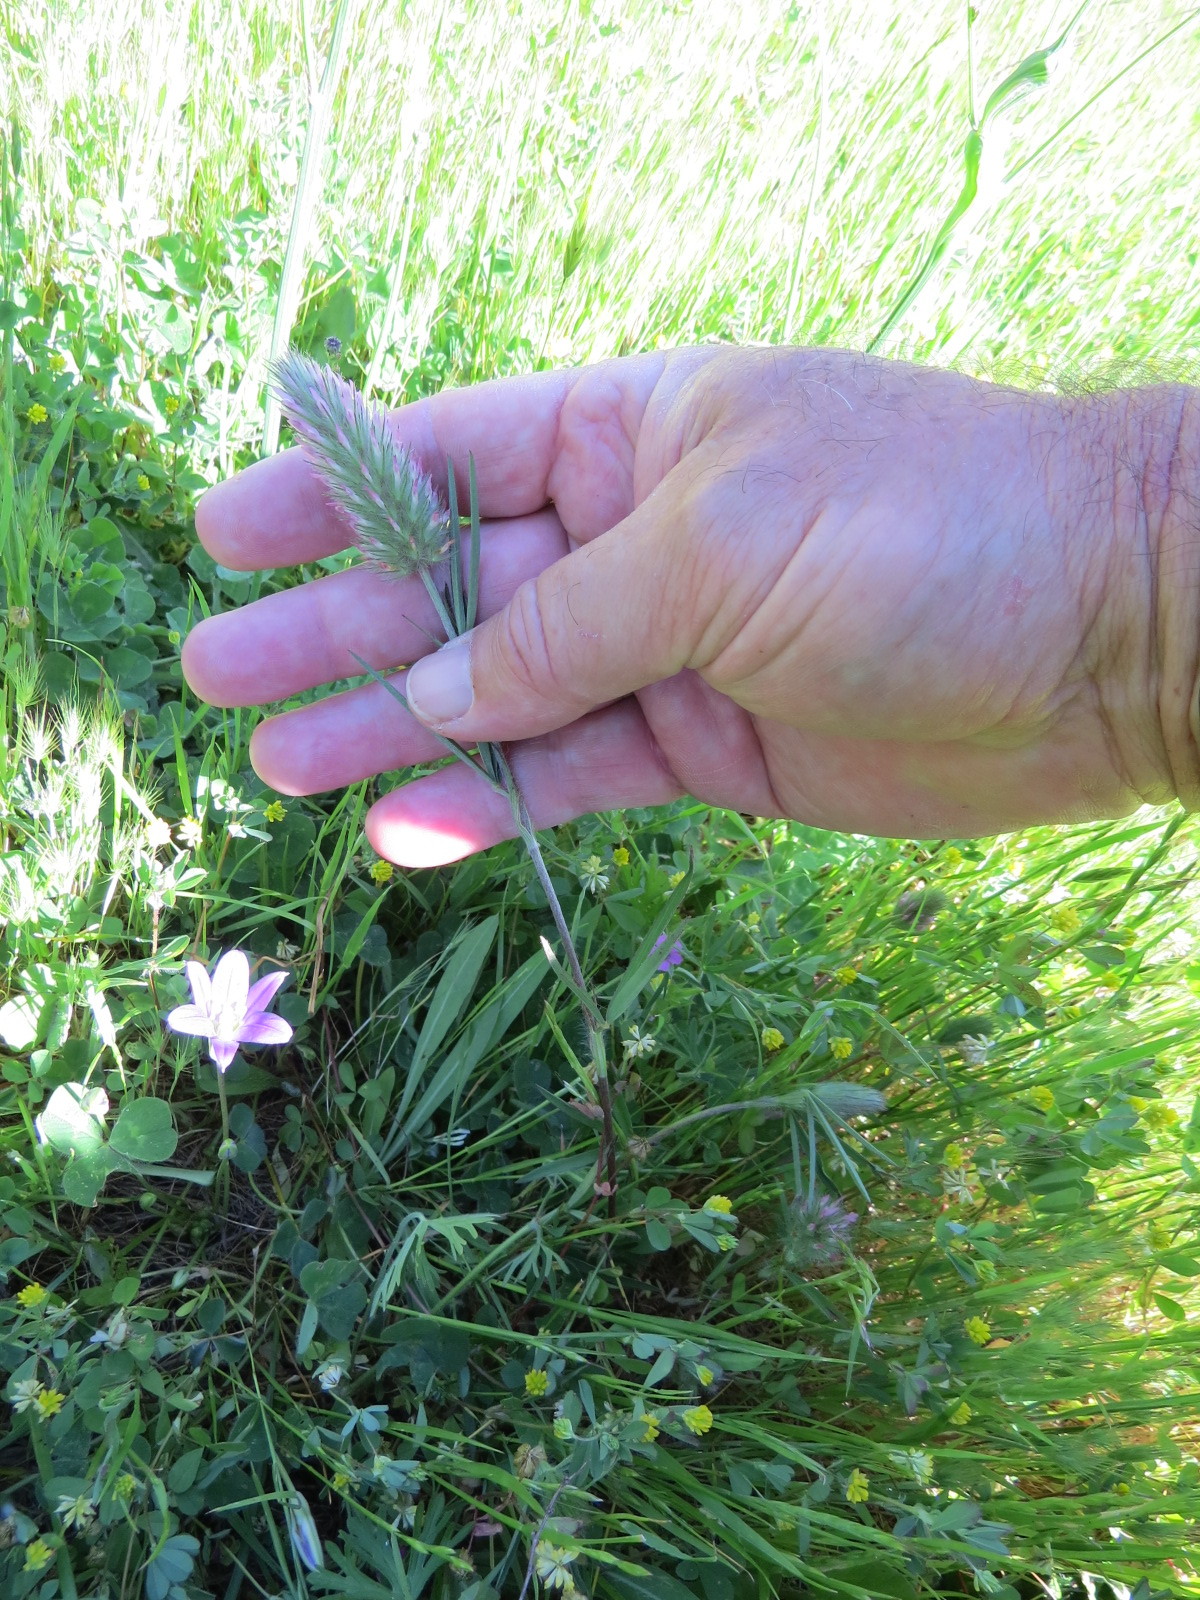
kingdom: Plantae
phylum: Tracheophyta
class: Magnoliopsida
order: Fabales
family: Fabaceae
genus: Trifolium
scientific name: Trifolium angustifolium
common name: Narrow clover
